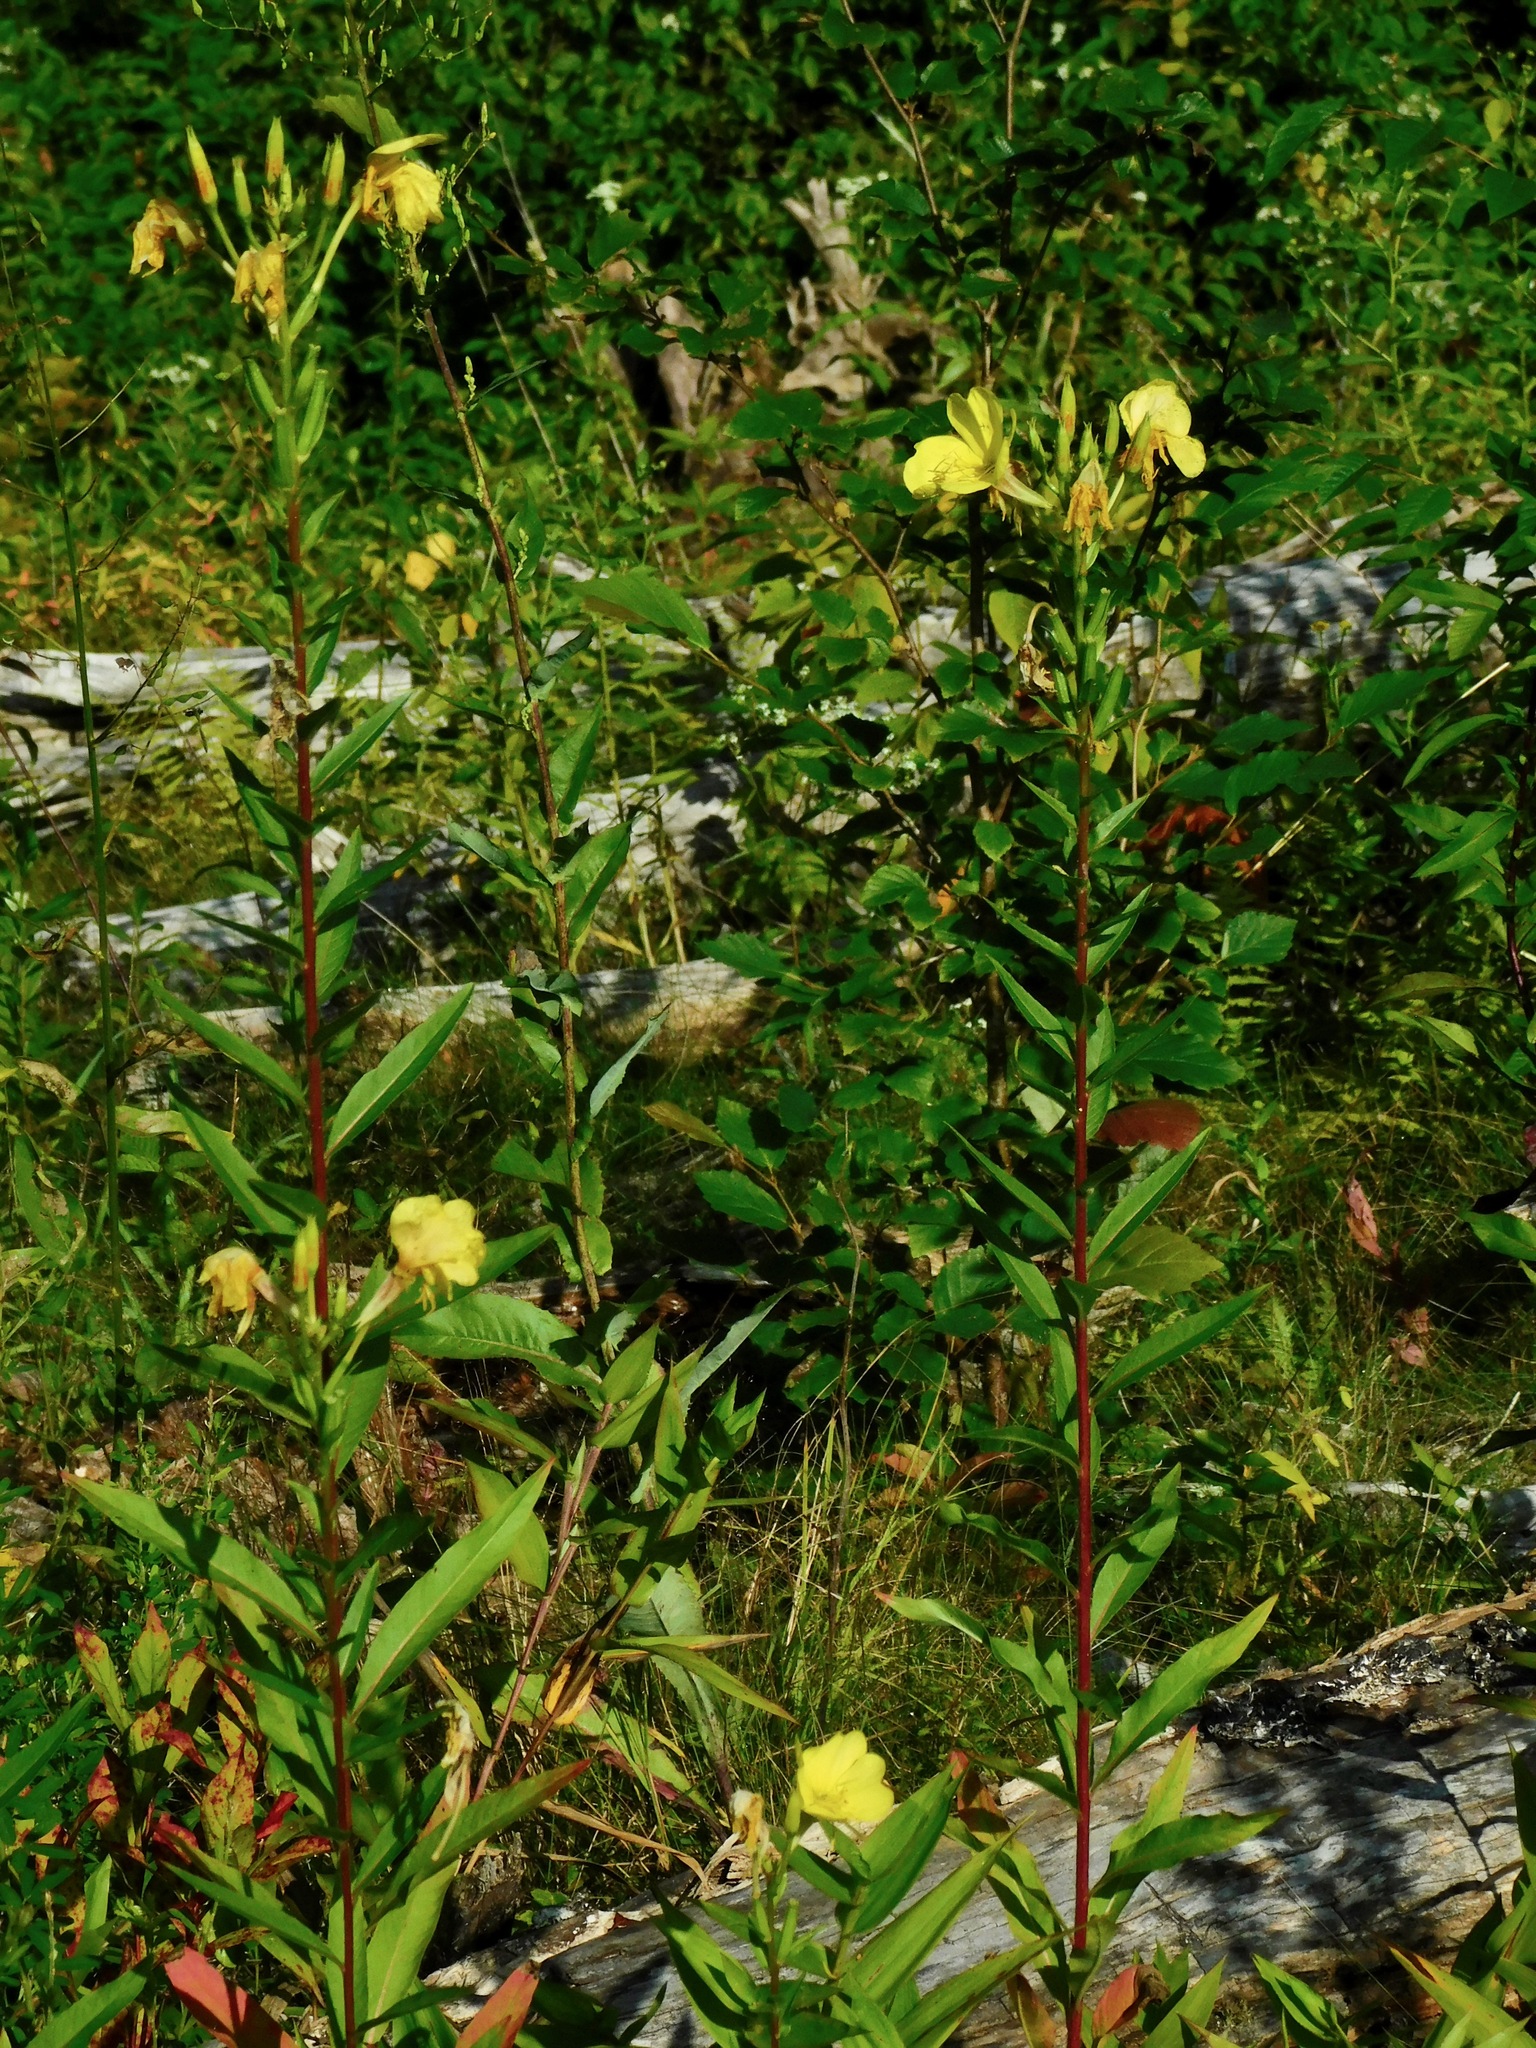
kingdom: Plantae
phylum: Tracheophyta
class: Magnoliopsida
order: Myrtales
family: Onagraceae
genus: Oenothera
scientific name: Oenothera biennis
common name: Common evening-primrose
